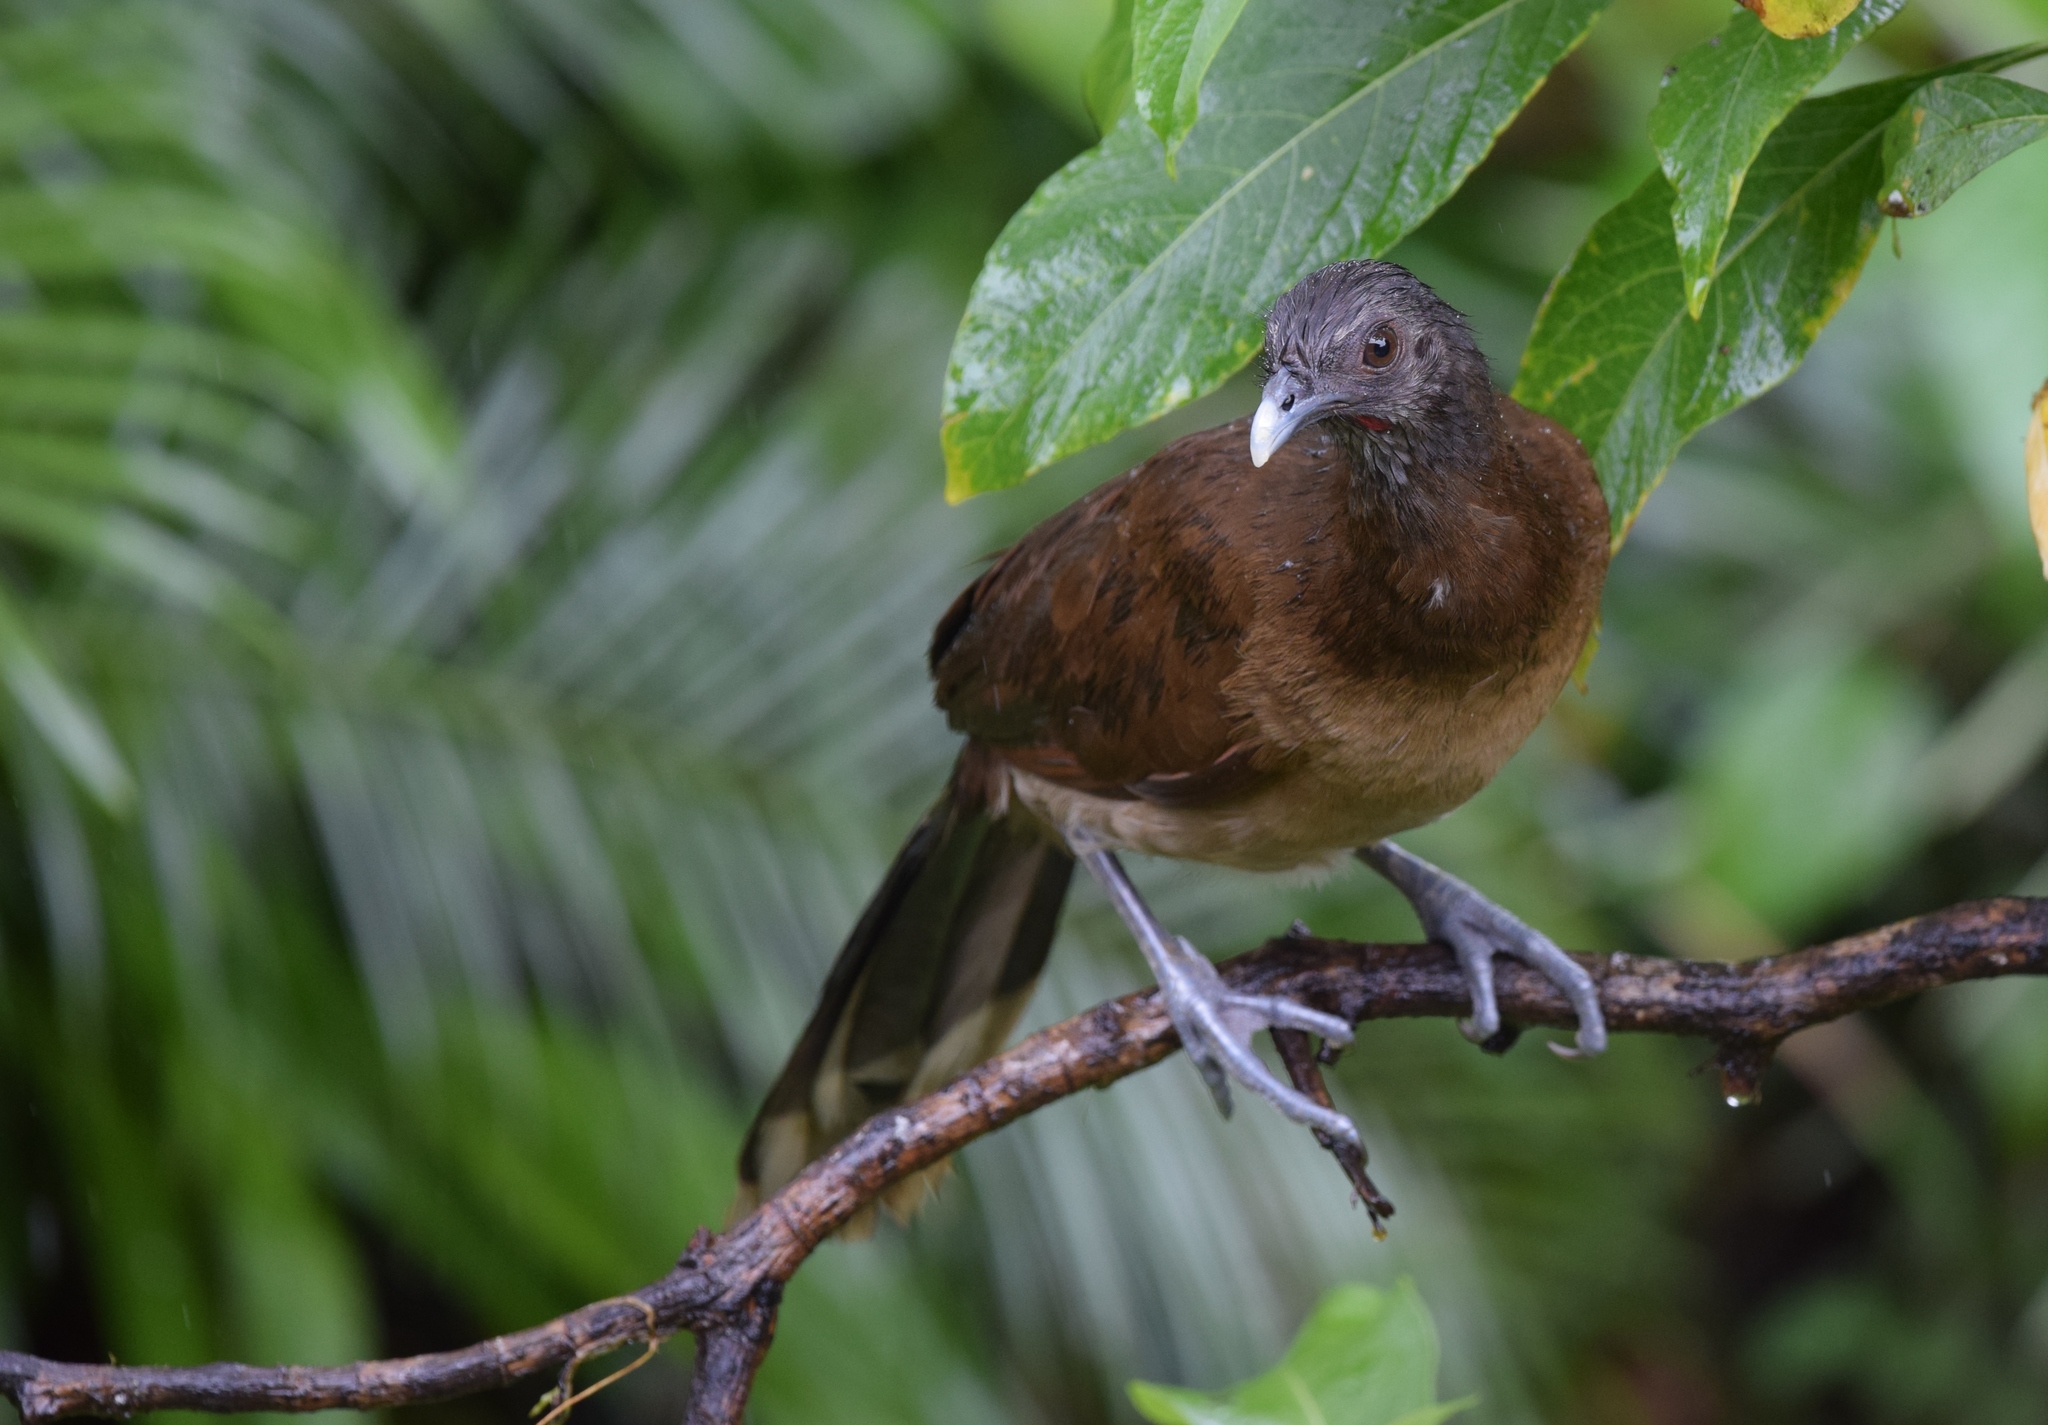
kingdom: Animalia
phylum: Chordata
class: Aves
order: Galliformes
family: Cracidae
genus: Ortalis
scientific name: Ortalis cinereiceps
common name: Grey-headed chachalaca
